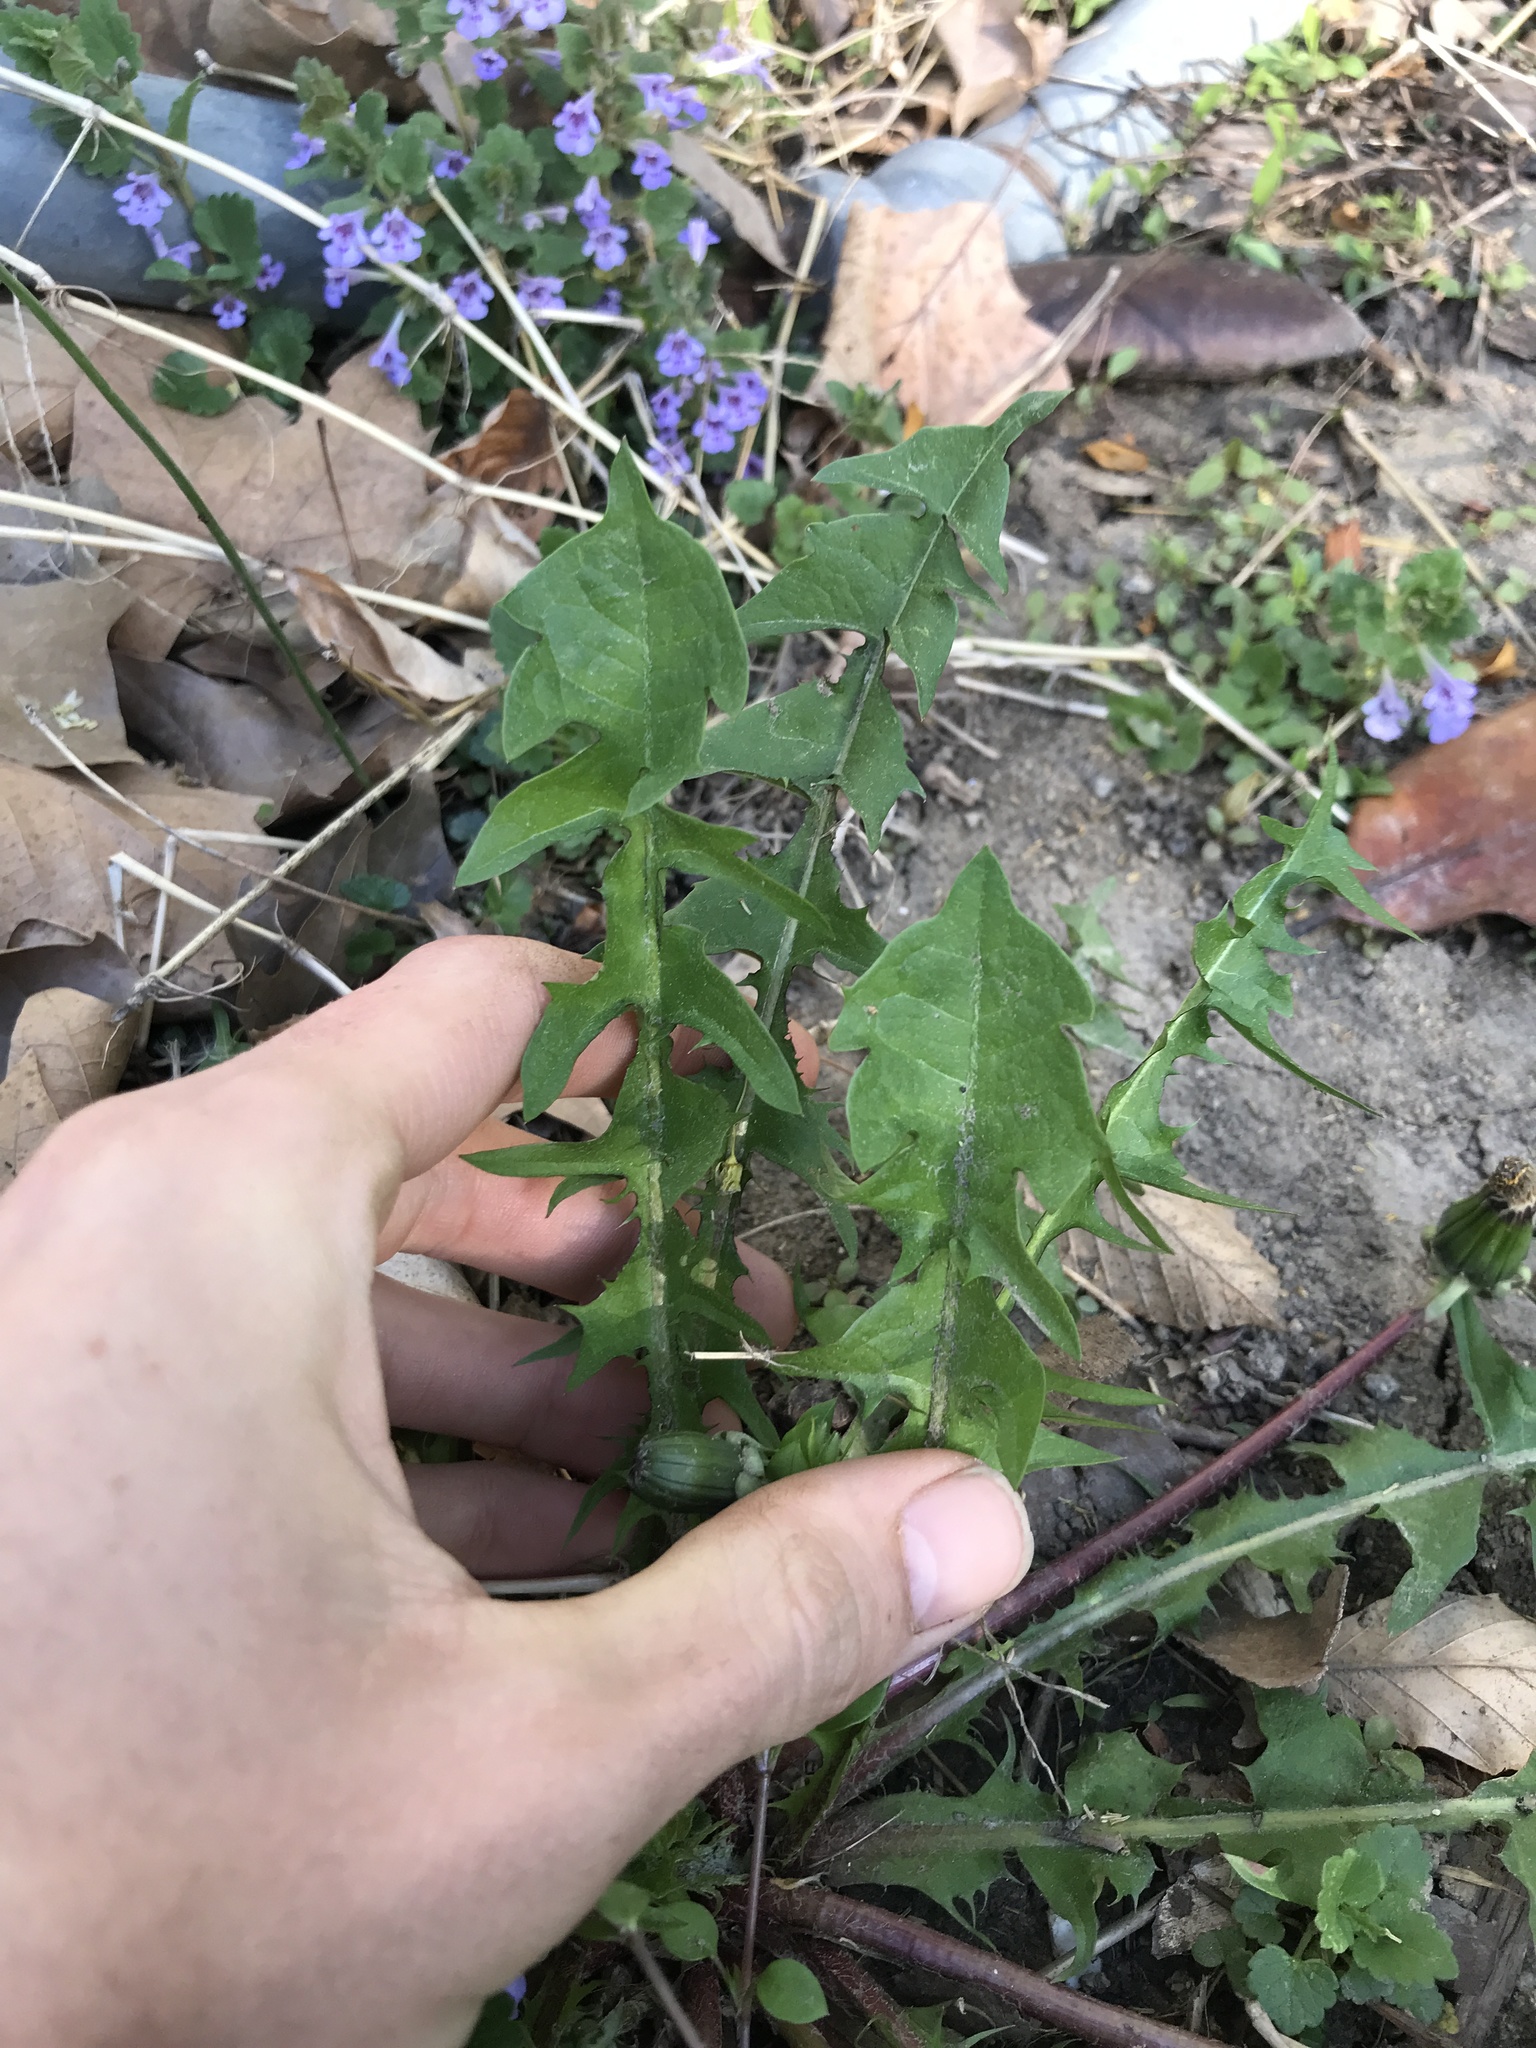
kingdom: Plantae
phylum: Tracheophyta
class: Magnoliopsida
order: Asterales
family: Asteraceae
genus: Taraxacum
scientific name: Taraxacum officinale
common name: Common dandelion
